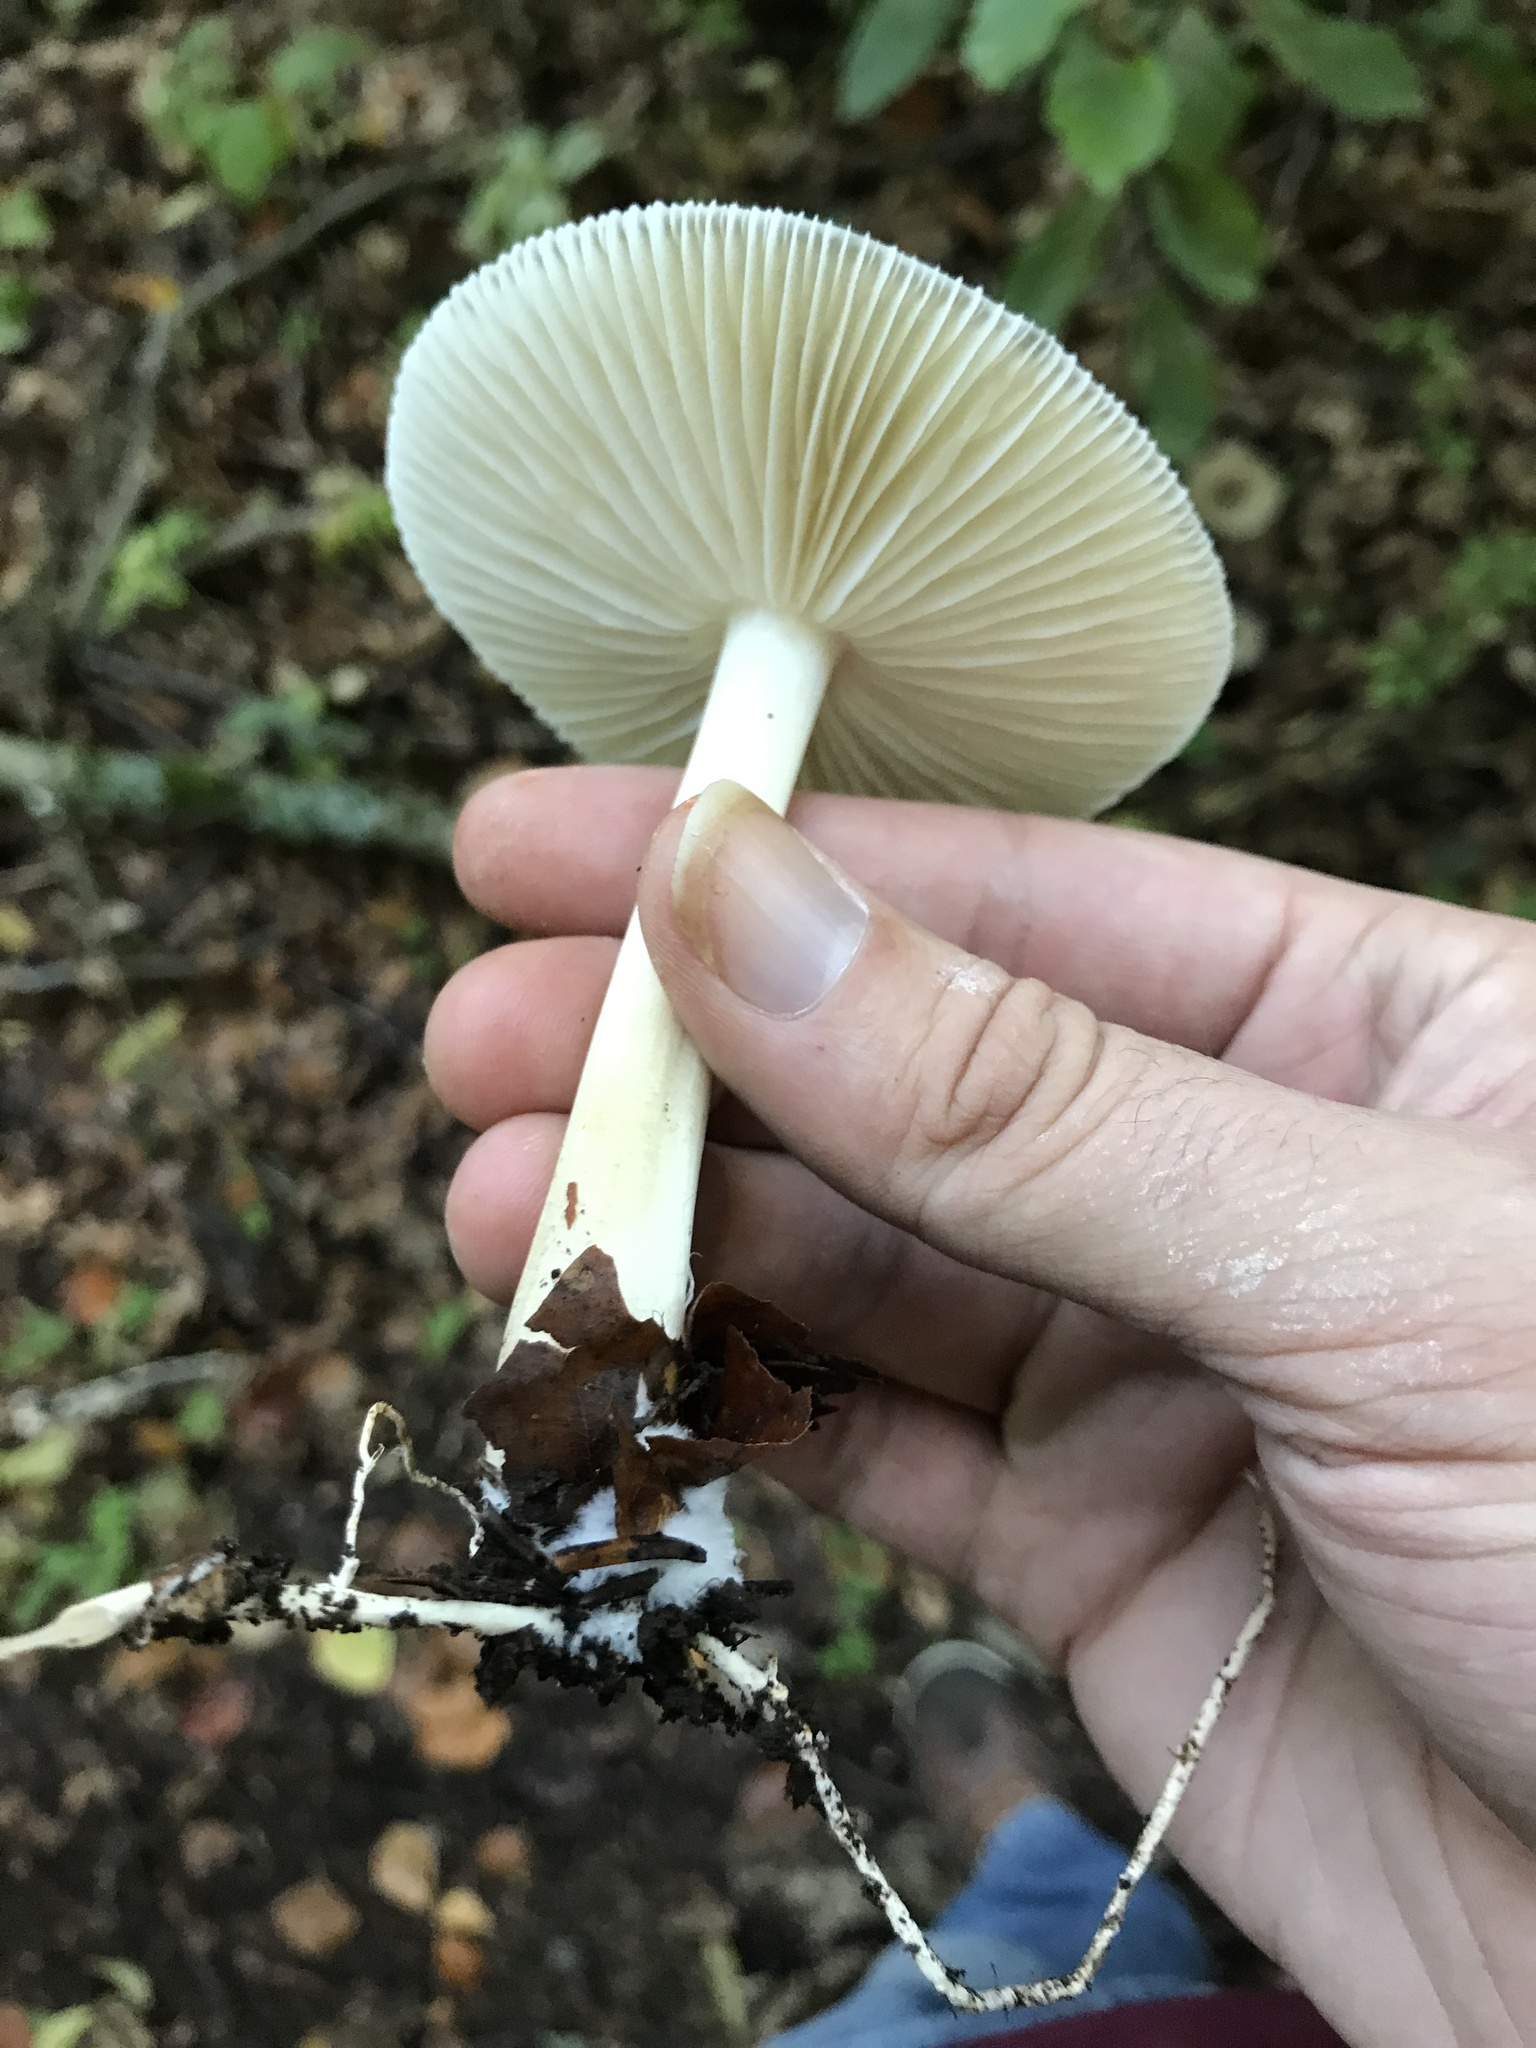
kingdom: Fungi
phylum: Basidiomycota
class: Agaricomycetes
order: Agaricales
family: Tricholomataceae
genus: Megacollybia
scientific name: Megacollybia platyphylla
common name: Whitelaced shank
